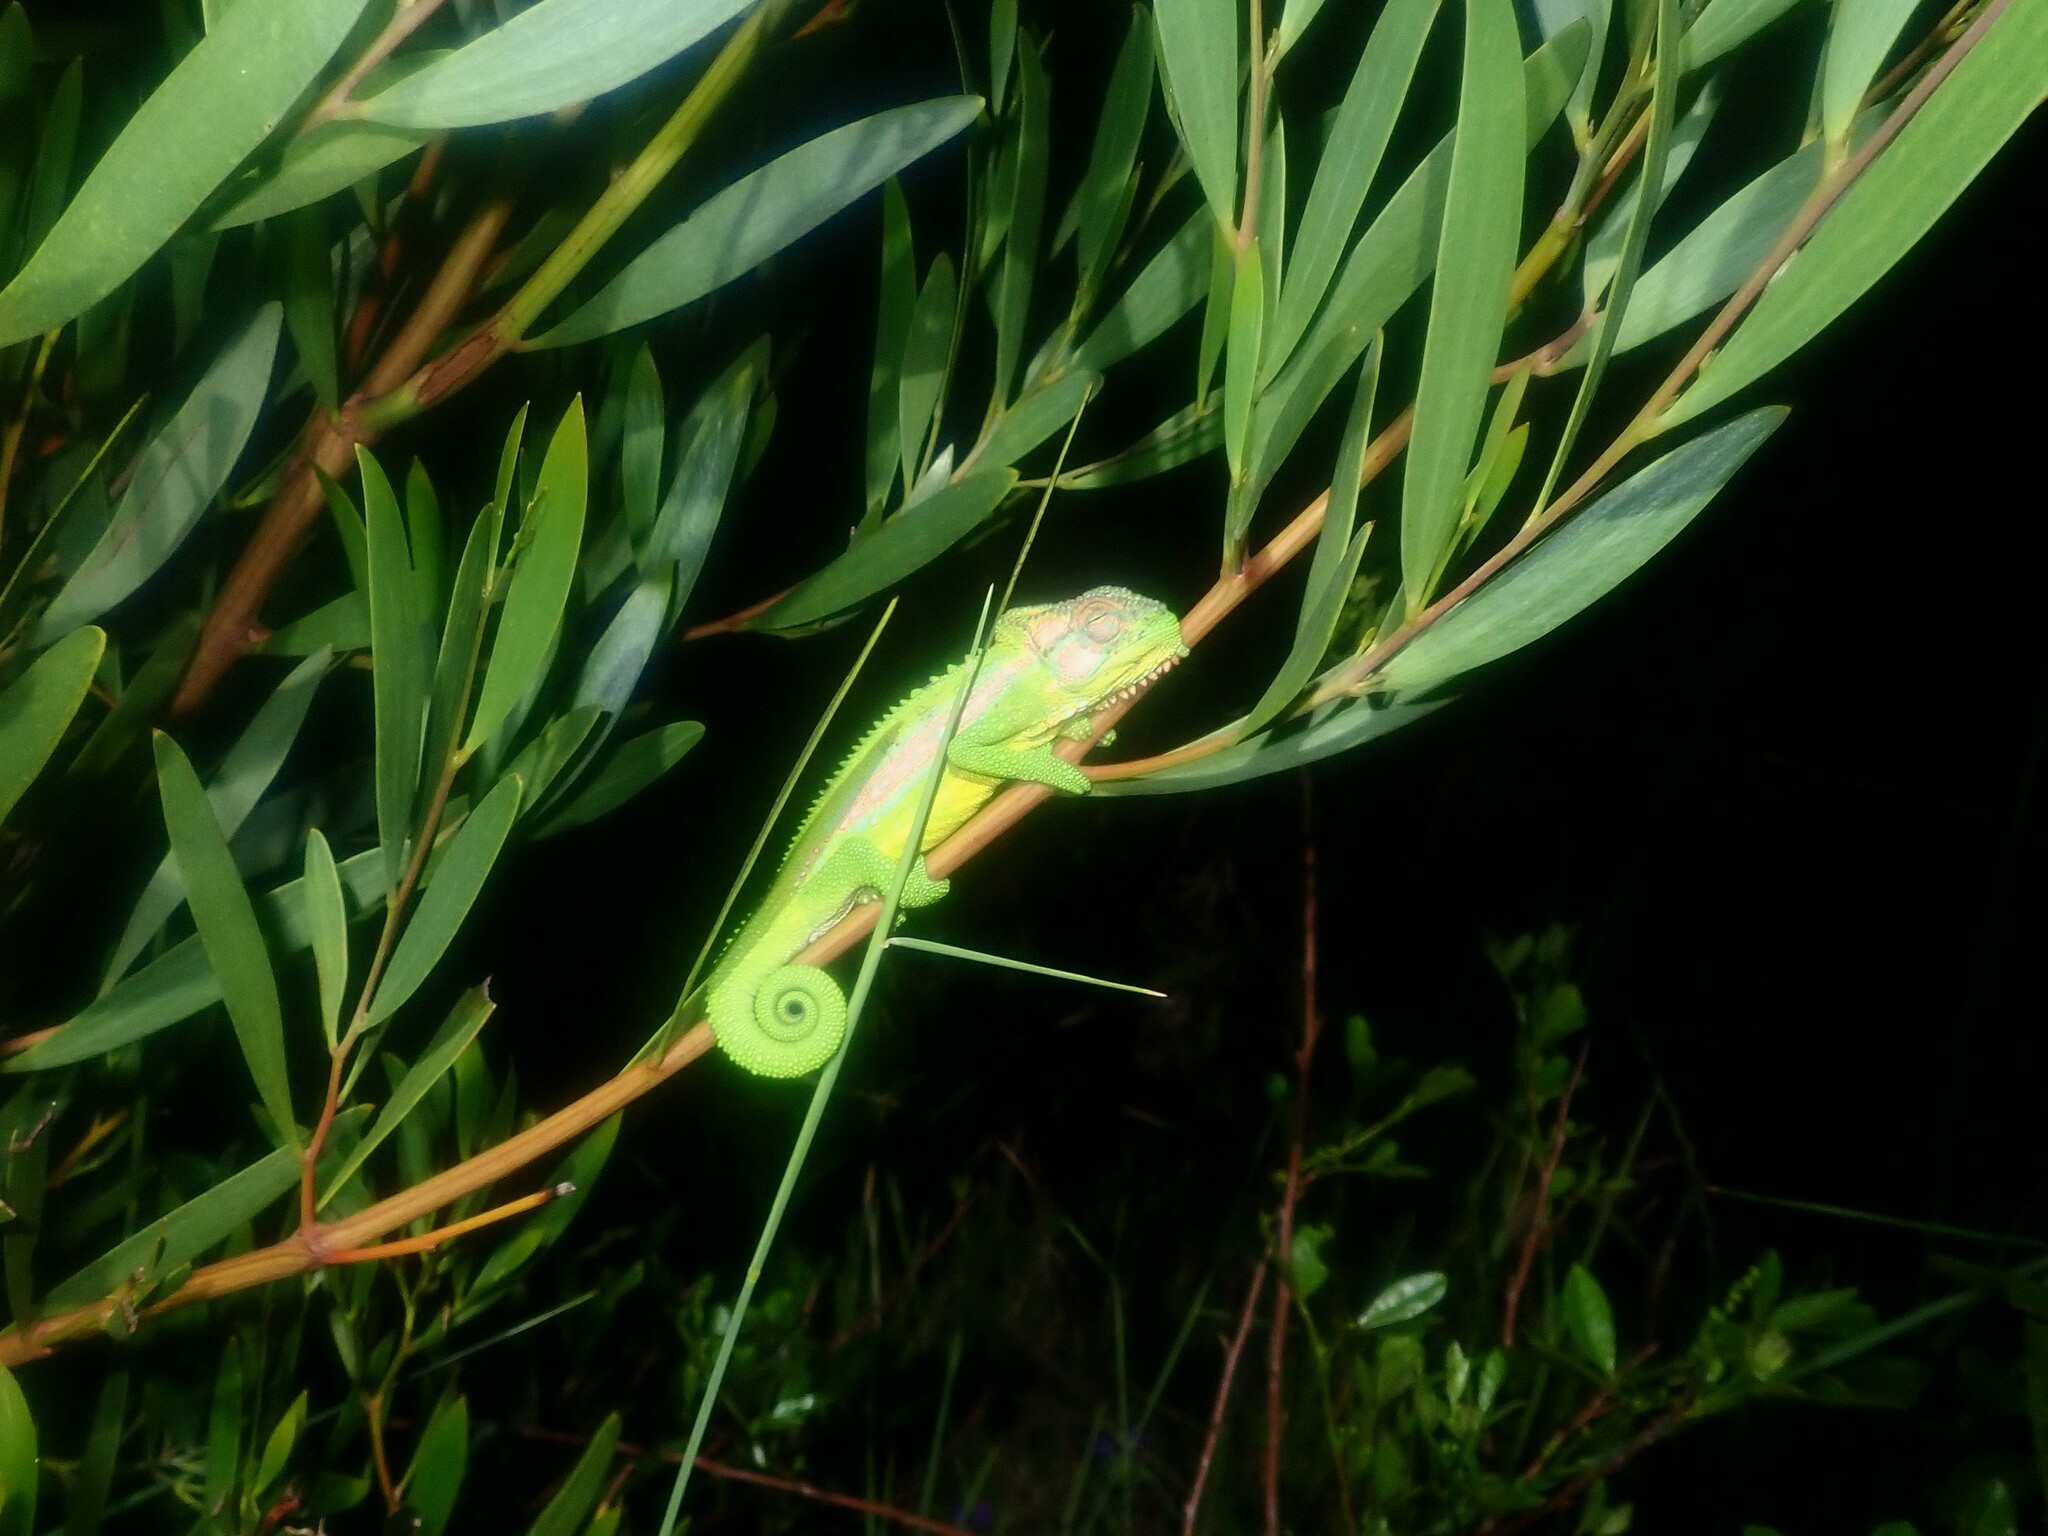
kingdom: Animalia
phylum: Chordata
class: Squamata
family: Chamaeleonidae
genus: Bradypodion
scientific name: Bradypodion pumilum
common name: Cape dwarf chameleon
